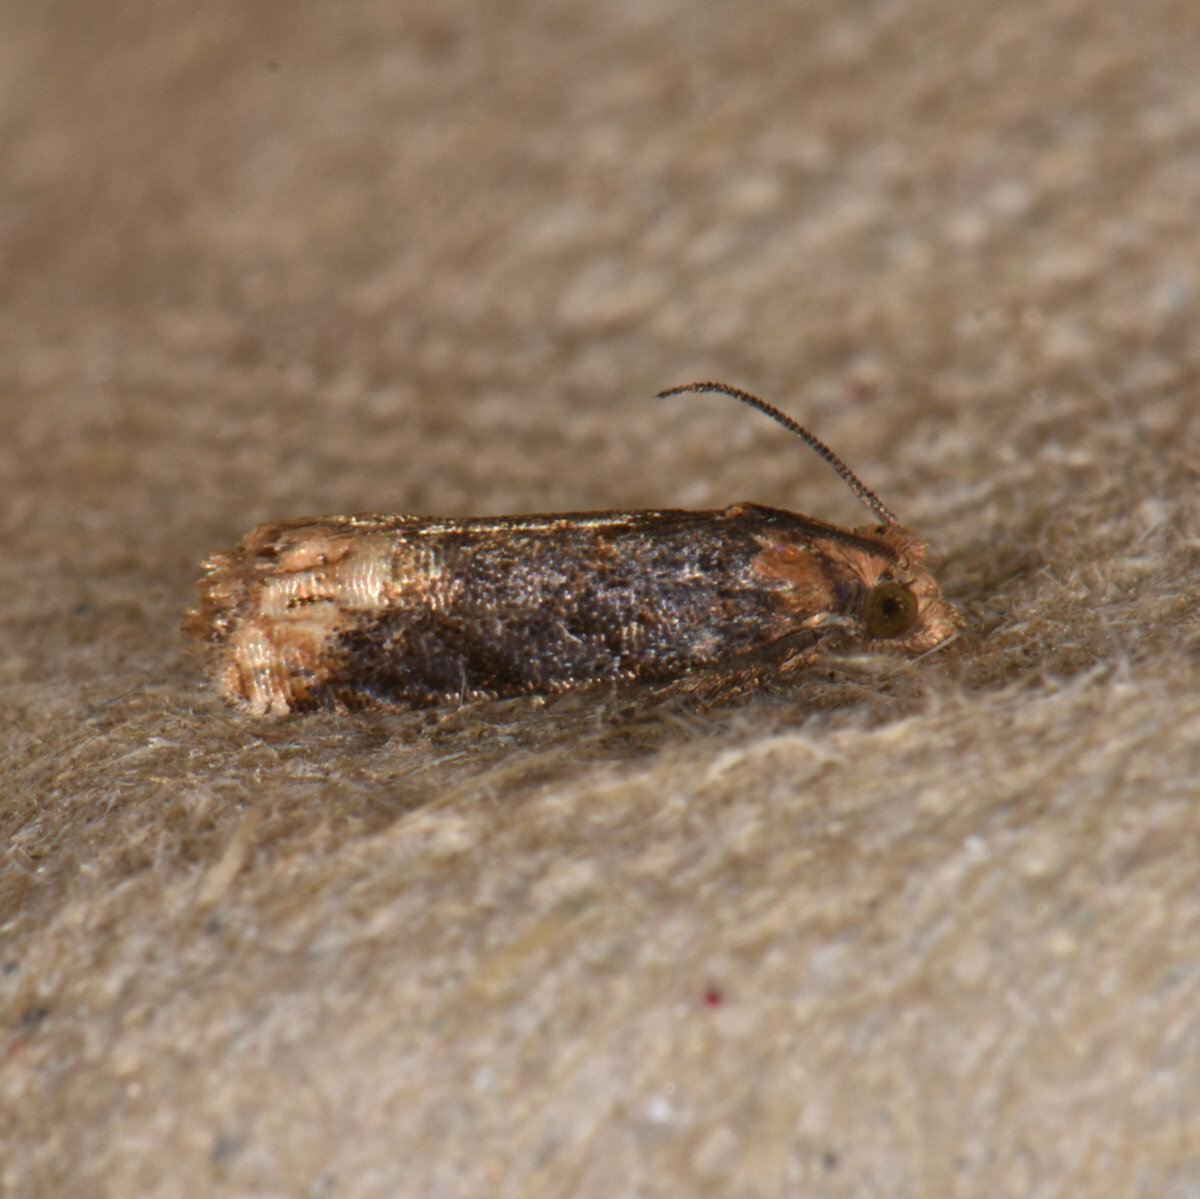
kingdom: Animalia
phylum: Arthropoda
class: Insecta
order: Lepidoptera
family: Tortricidae
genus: Eucosma
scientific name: Eucosma ochroterminana
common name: Buff-tipped eucosma moth
